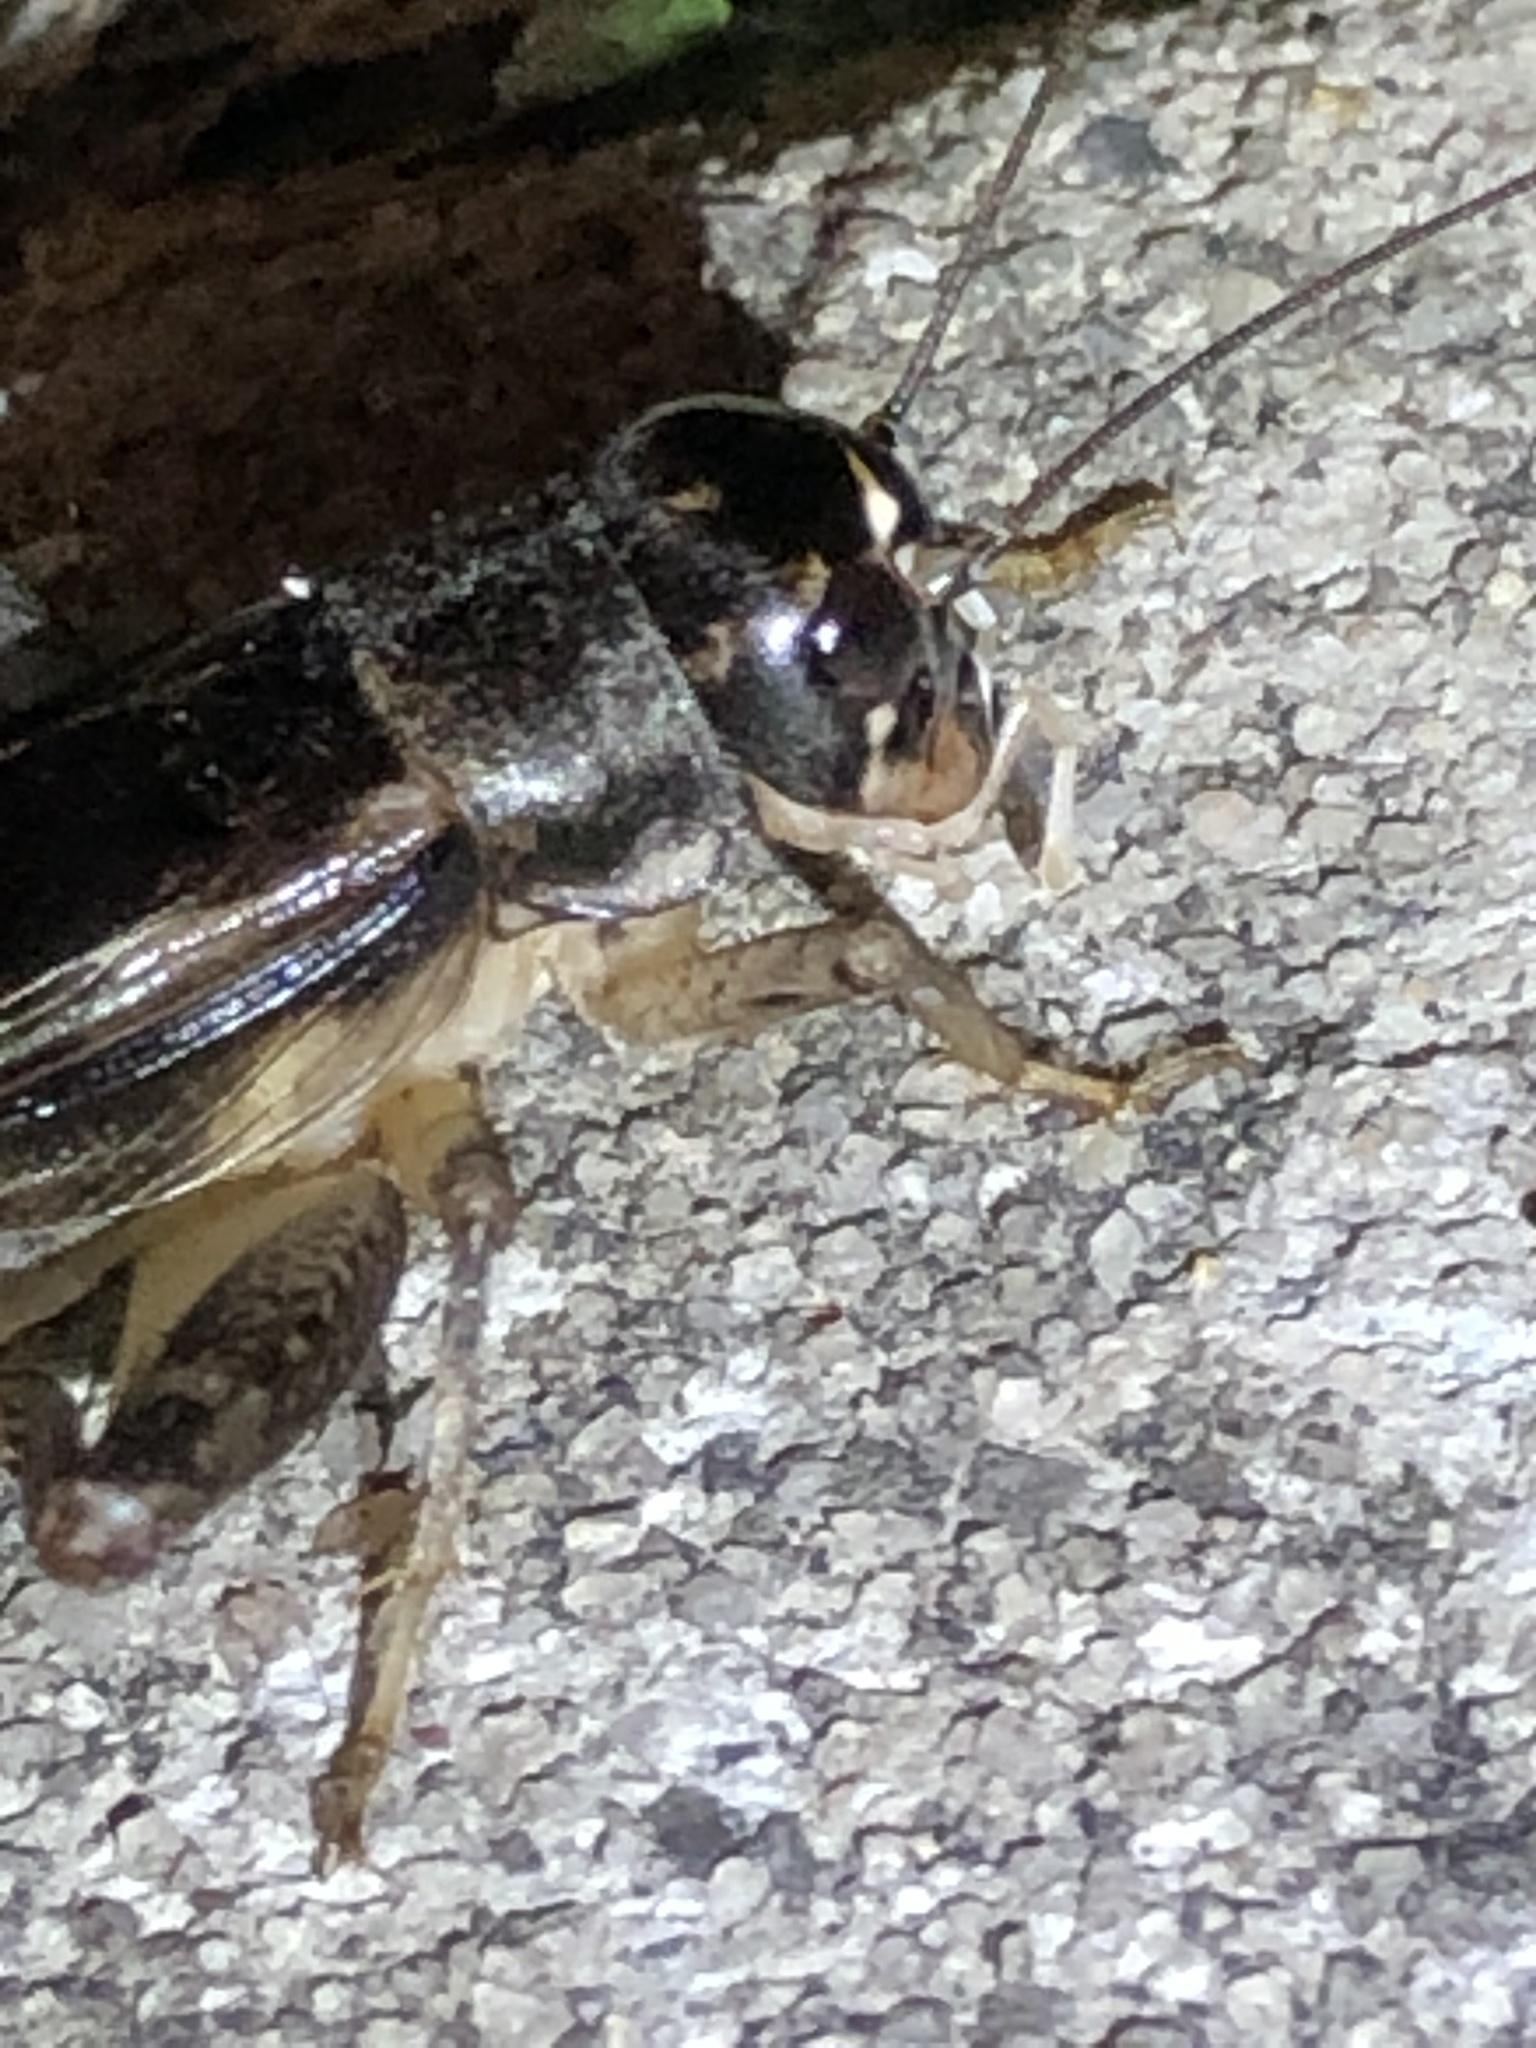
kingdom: Animalia
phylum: Arthropoda
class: Insecta
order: Orthoptera
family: Gryllidae
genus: Velarifictorus
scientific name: Velarifictorus micado
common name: Japanese burrowing cricket
